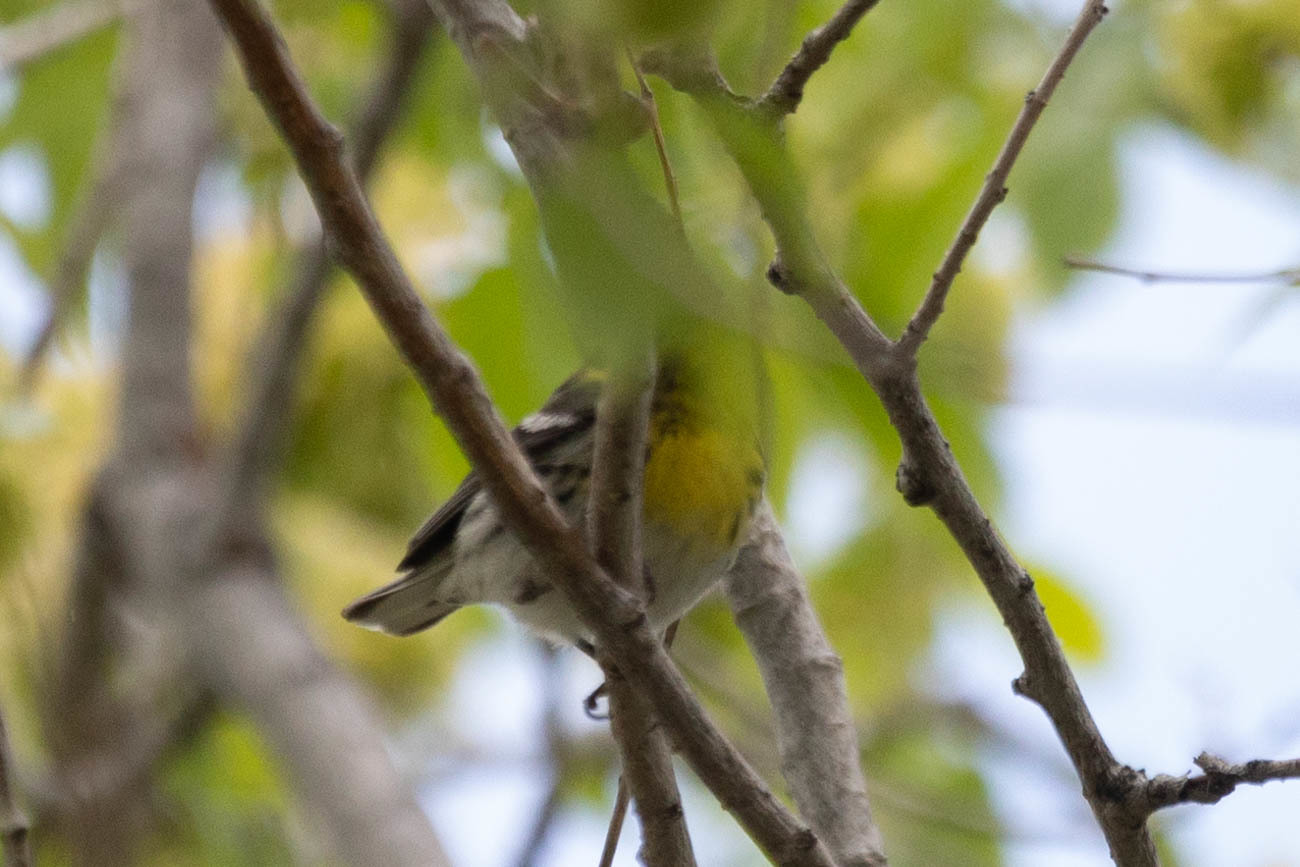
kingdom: Animalia
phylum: Chordata
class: Aves
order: Passeriformes
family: Parulidae
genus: Setophaga
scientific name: Setophaga townsendi
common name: Townsend's warbler
